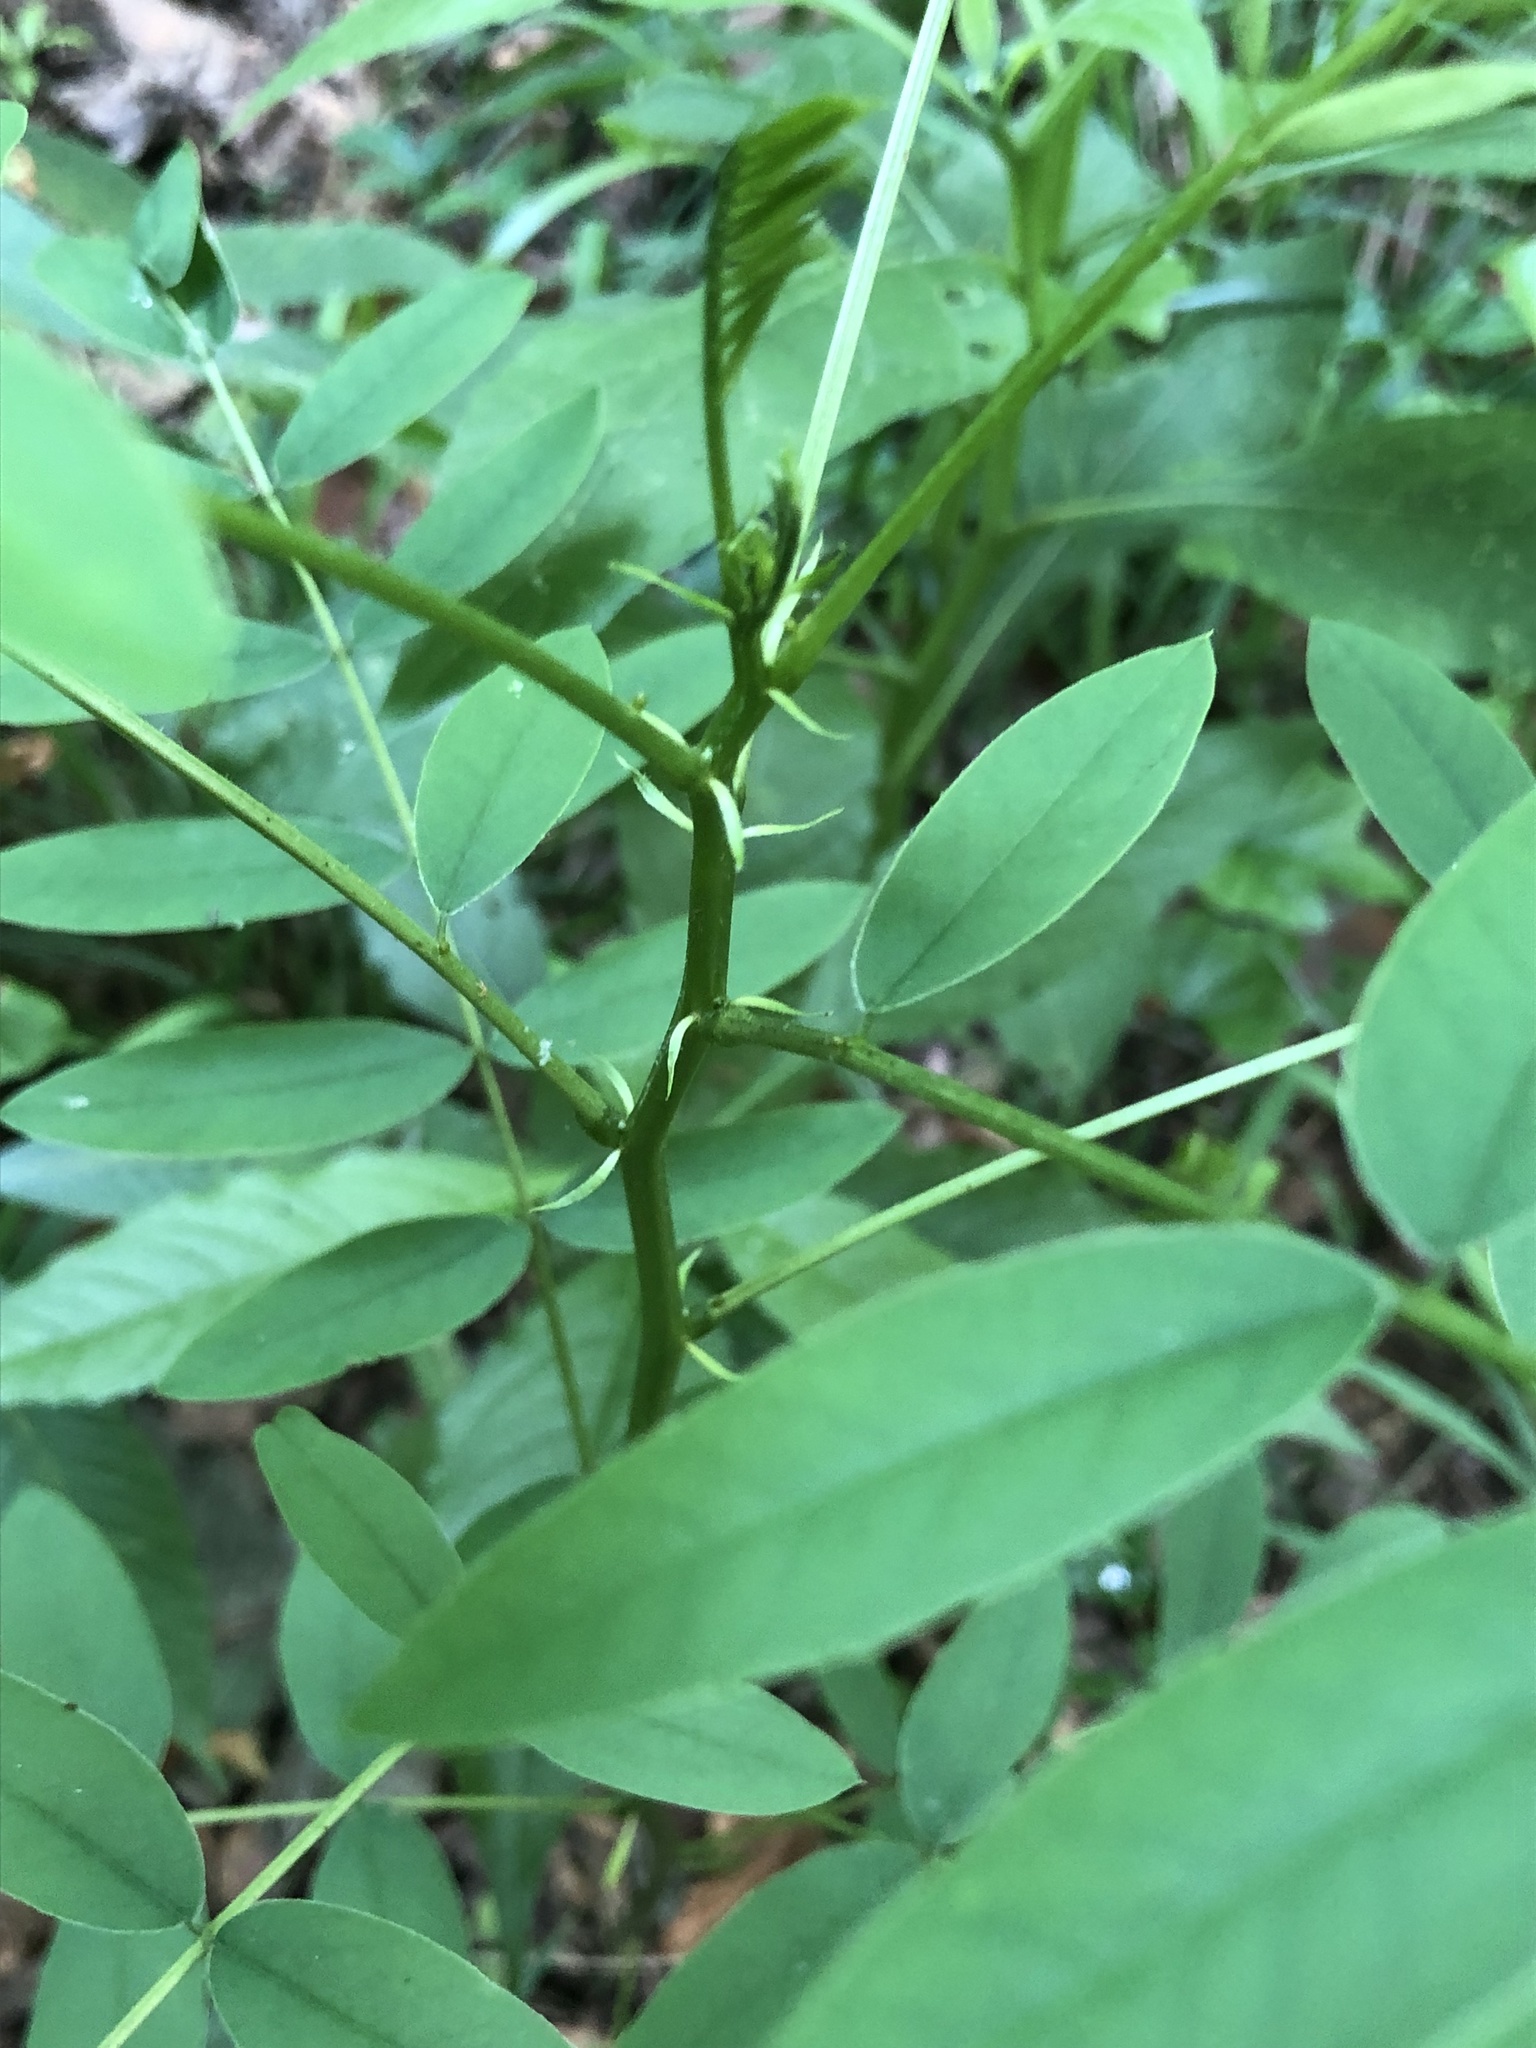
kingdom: Plantae
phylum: Tracheophyta
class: Magnoliopsida
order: Fabales
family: Fabaceae
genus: Senna
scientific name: Senna marilandica
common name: American senna
